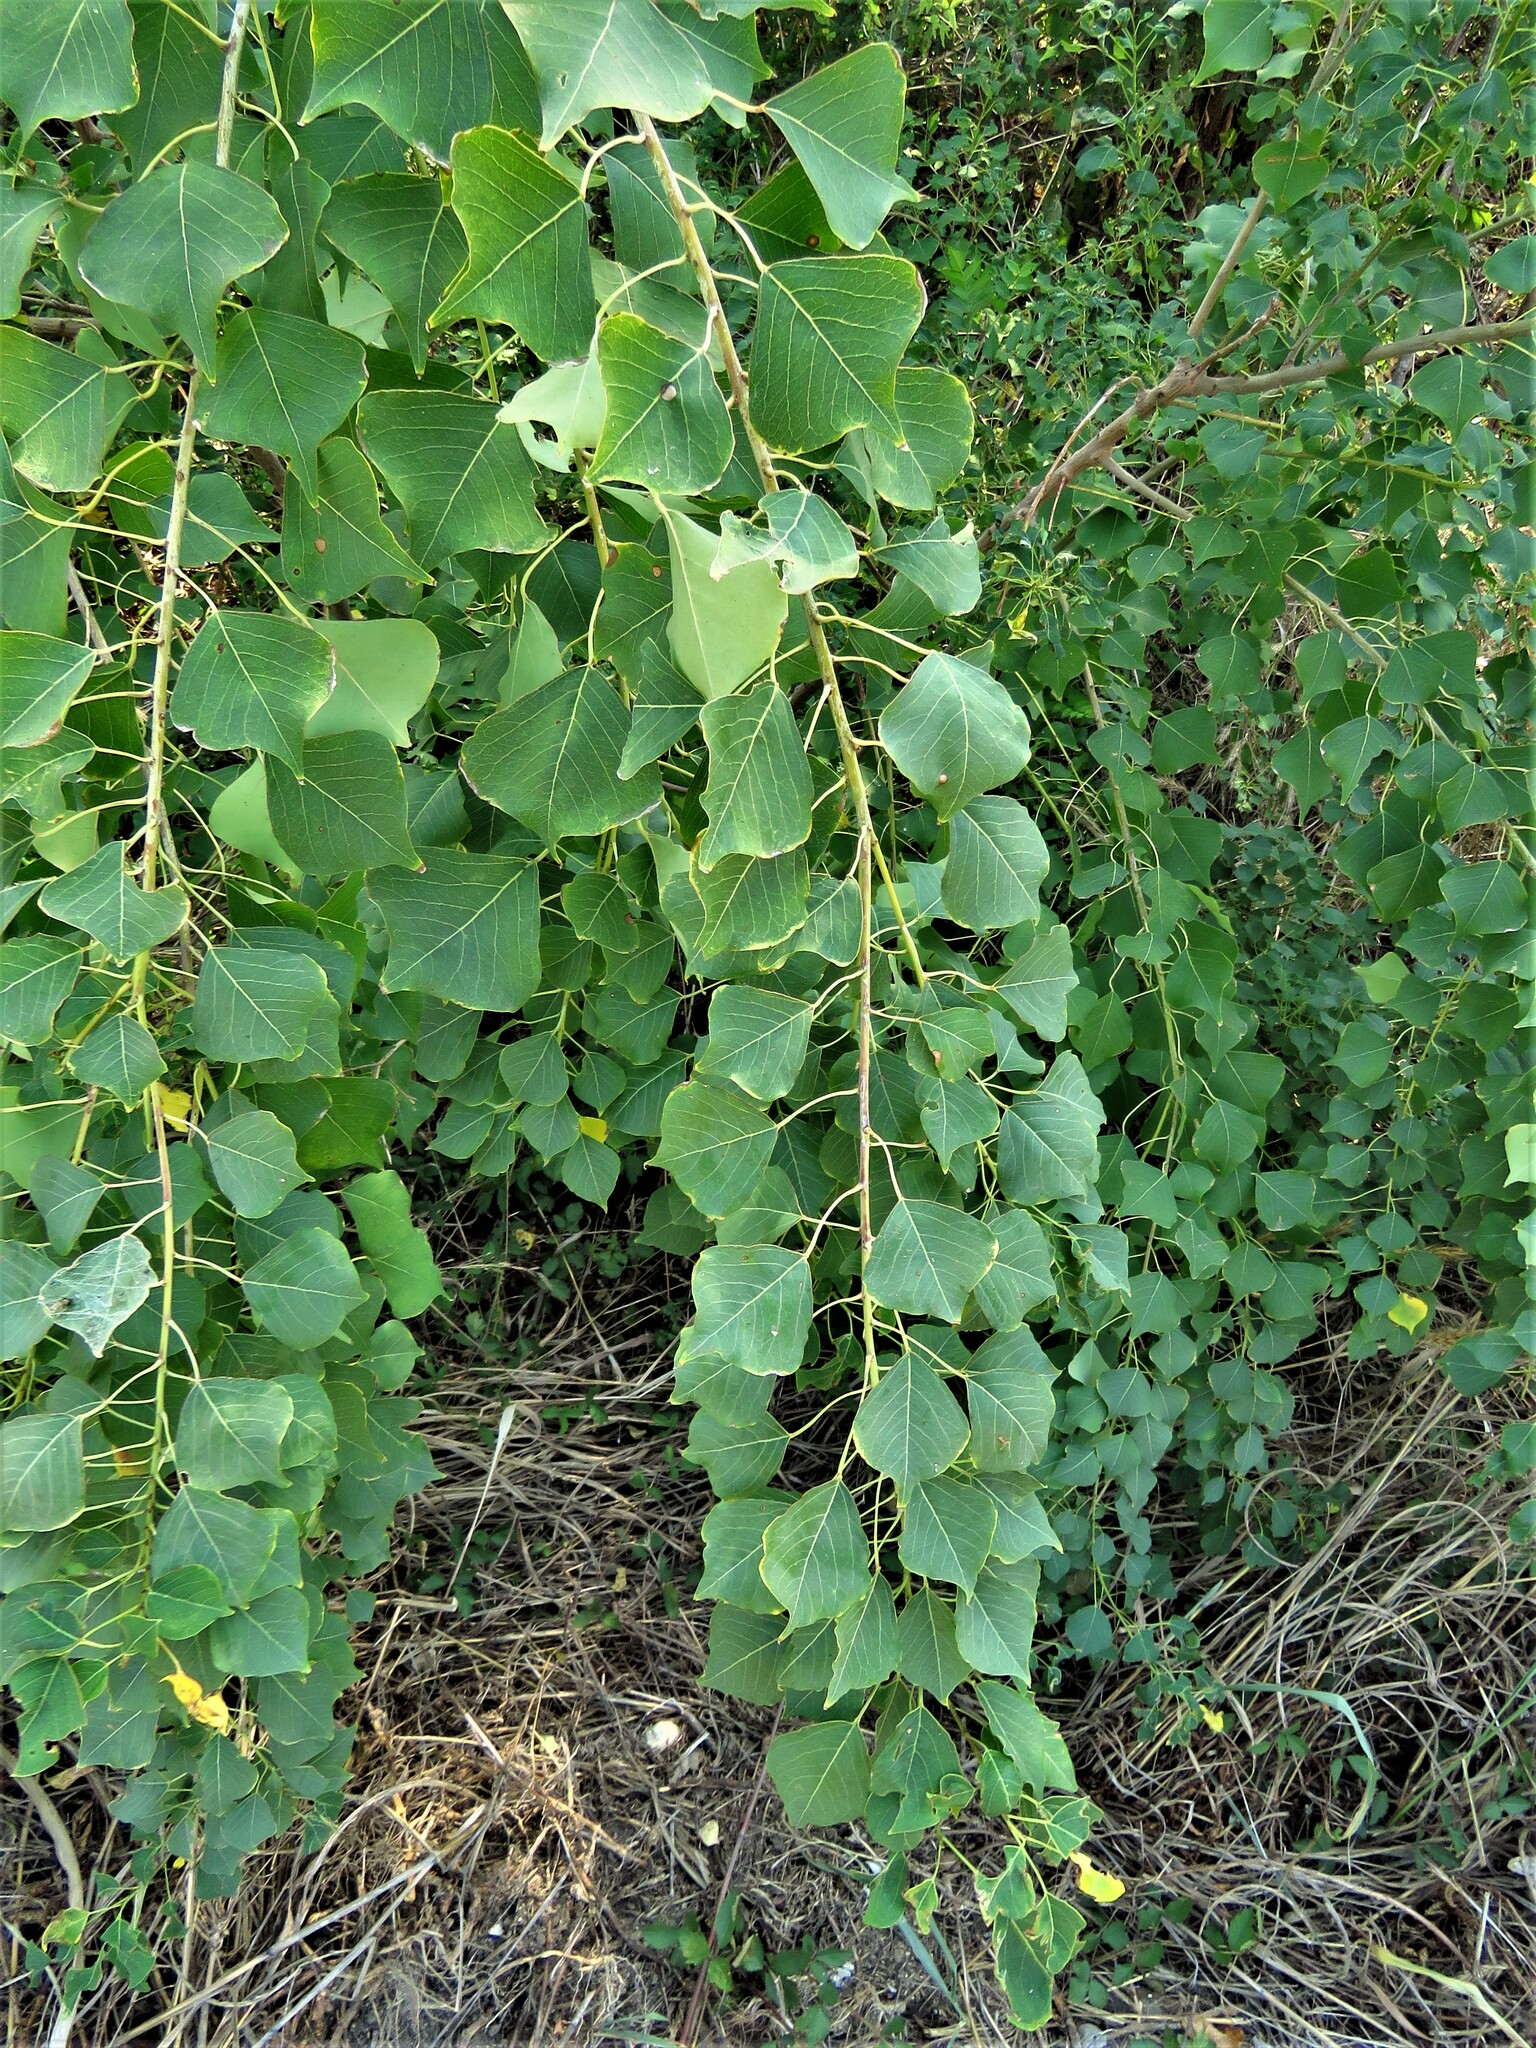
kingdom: Plantae
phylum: Tracheophyta
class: Magnoliopsida
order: Malpighiales
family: Euphorbiaceae
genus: Triadica
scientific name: Triadica sebifera
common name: Chinese tallow
